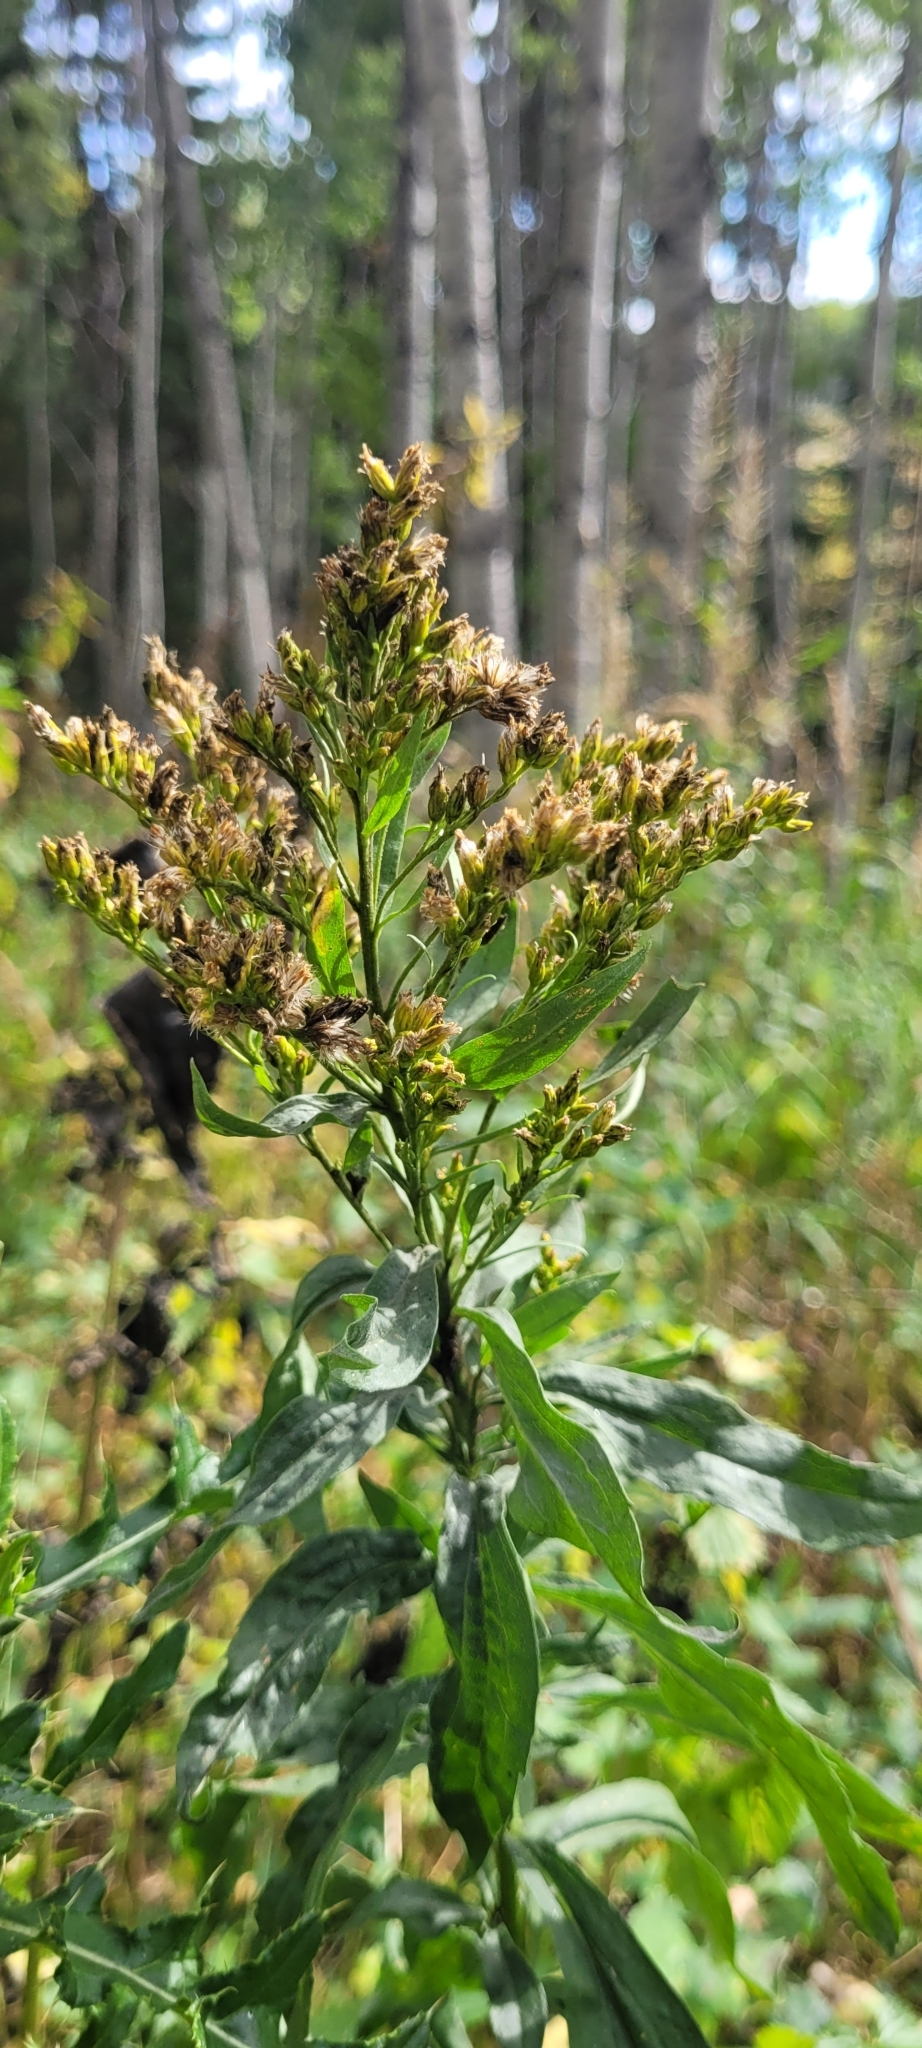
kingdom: Plantae
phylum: Tracheophyta
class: Magnoliopsida
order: Asterales
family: Asteraceae
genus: Solidago
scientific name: Solidago lepida
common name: Western canada goldenrod
